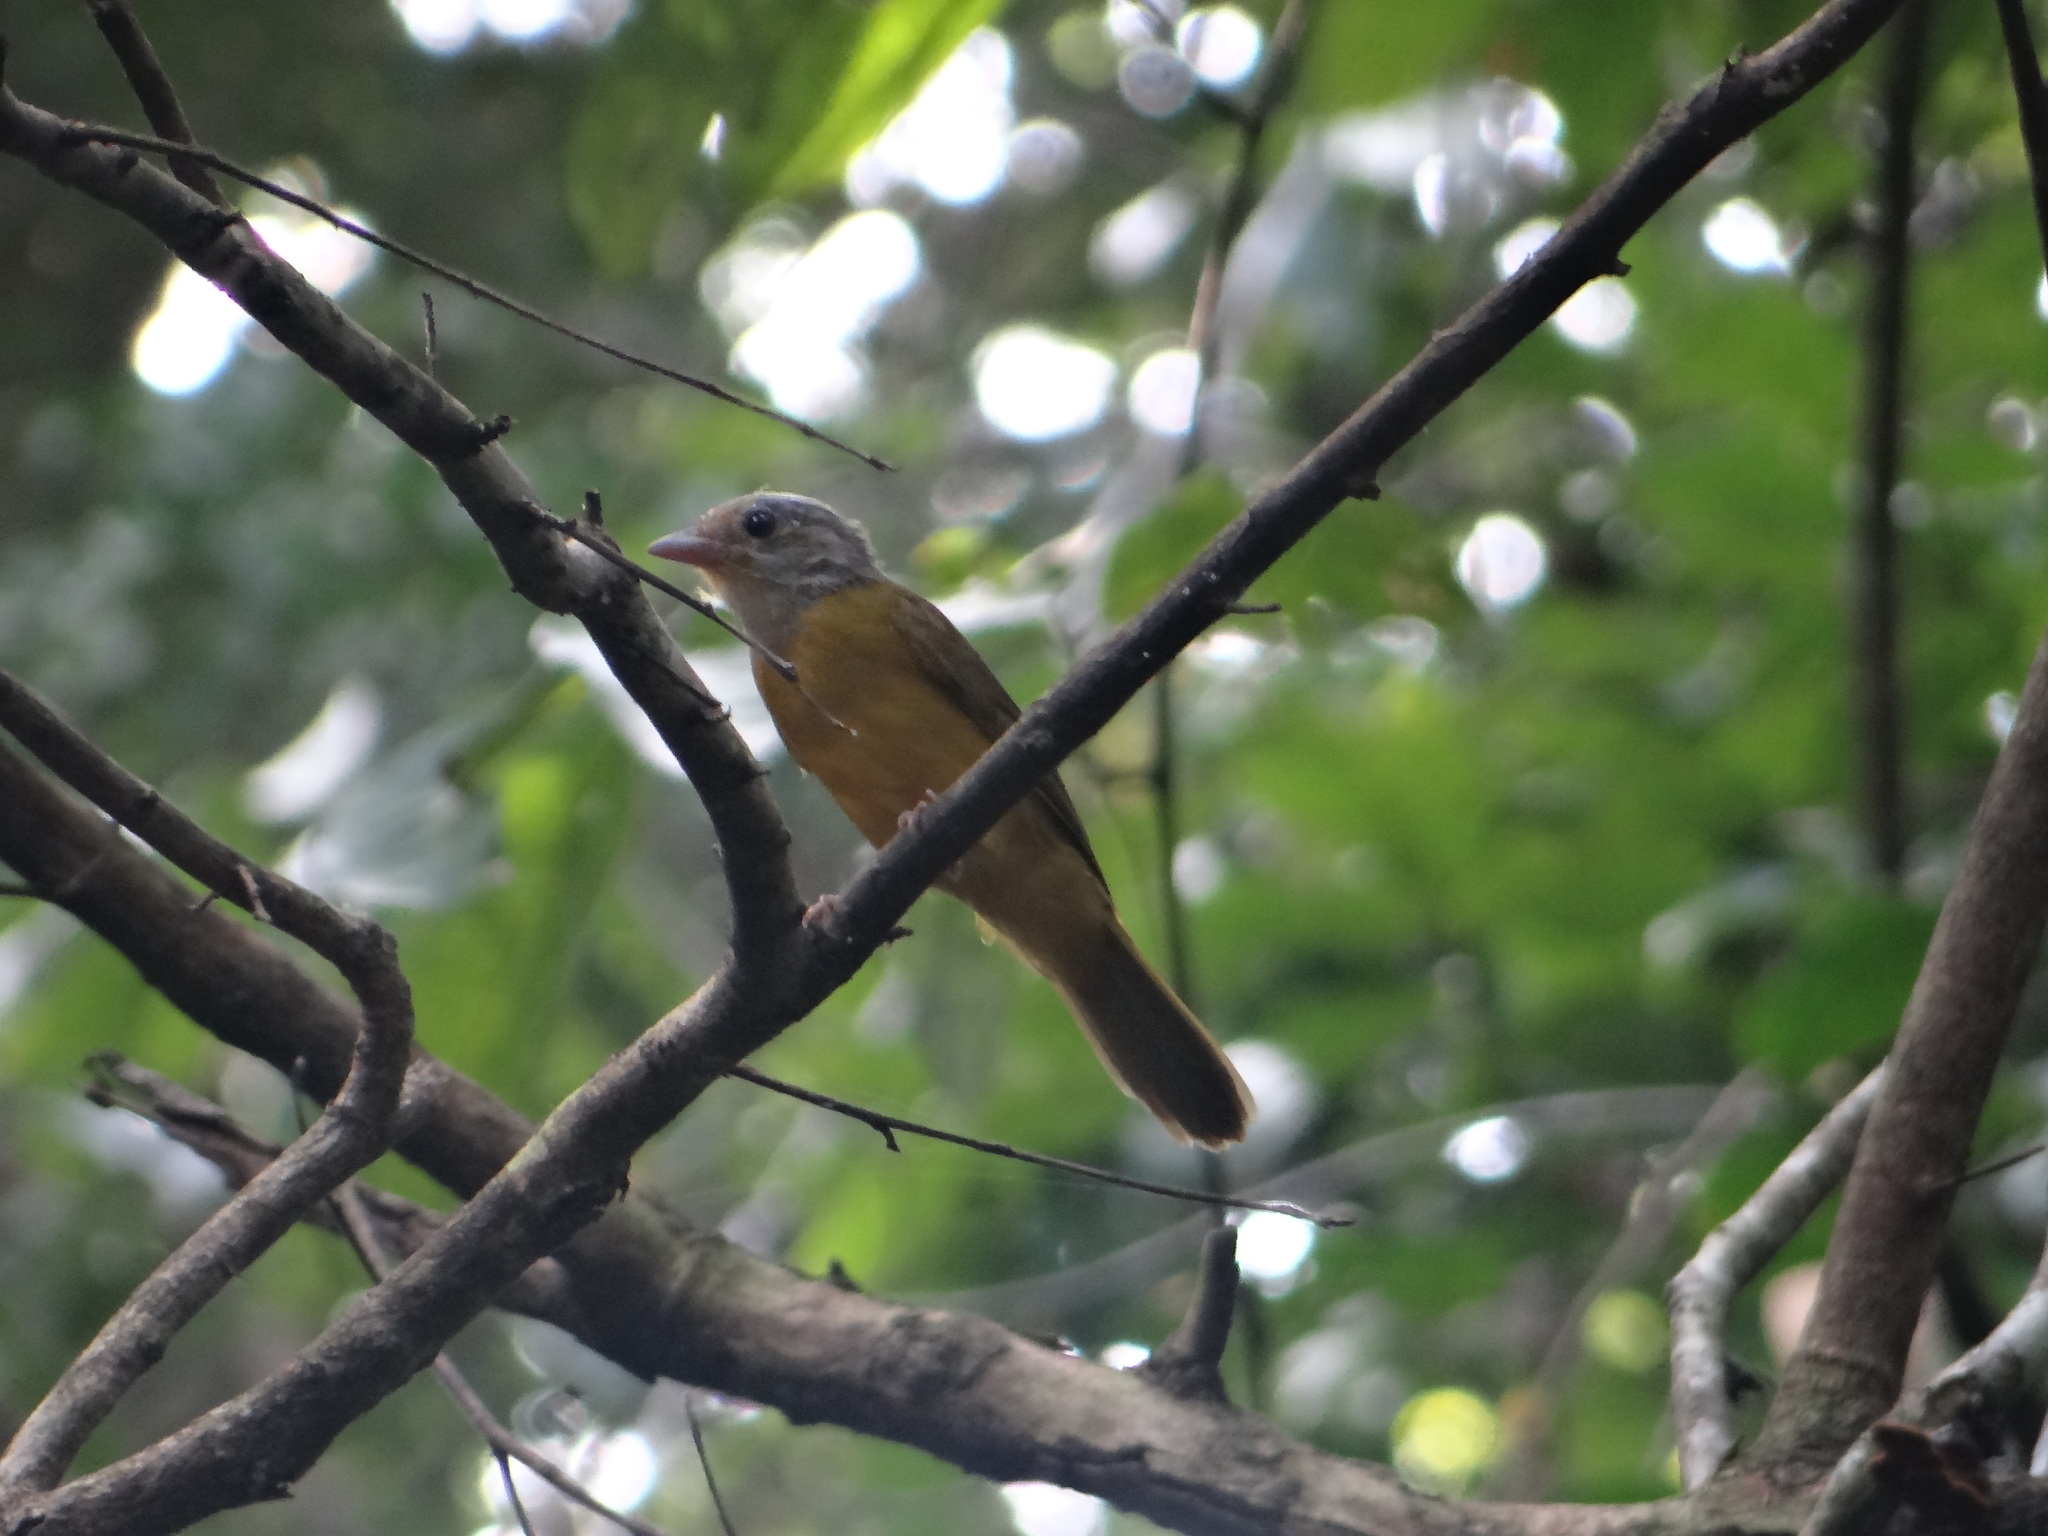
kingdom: Animalia
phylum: Chordata
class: Aves
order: Passeriformes
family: Thraupidae
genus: Eucometis
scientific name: Eucometis penicillata
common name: Grey-headed tanager
